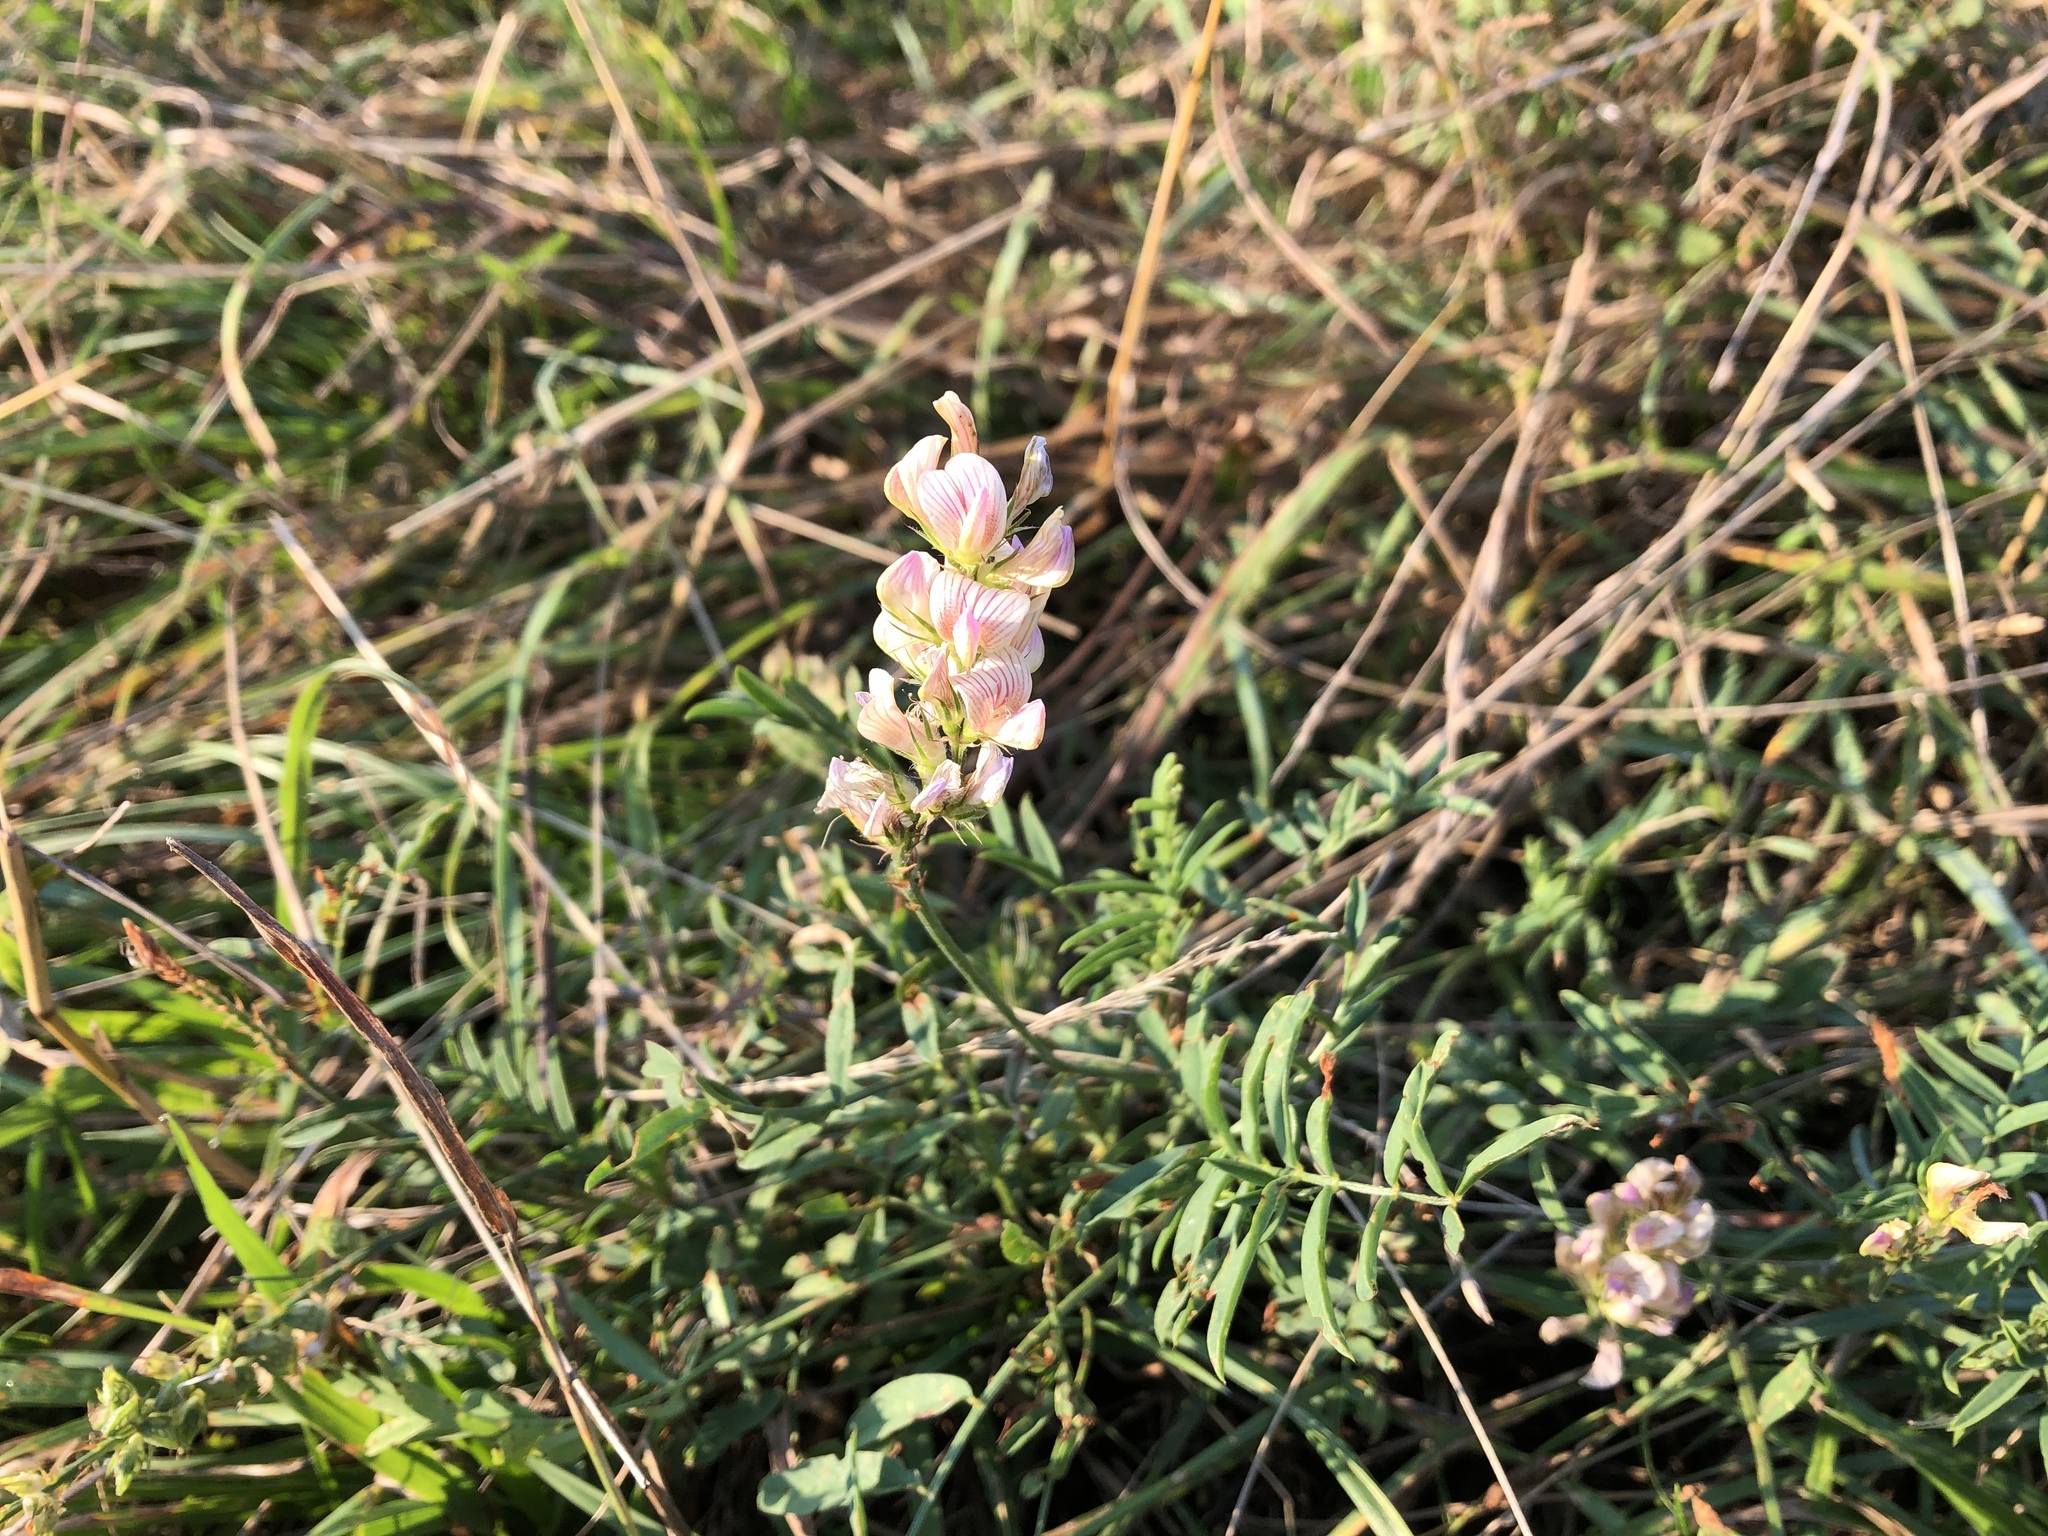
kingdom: Plantae
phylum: Tracheophyta
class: Magnoliopsida
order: Fabales
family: Fabaceae
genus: Onobrychis
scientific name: Onobrychis viciifolia
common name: Sainfoin
